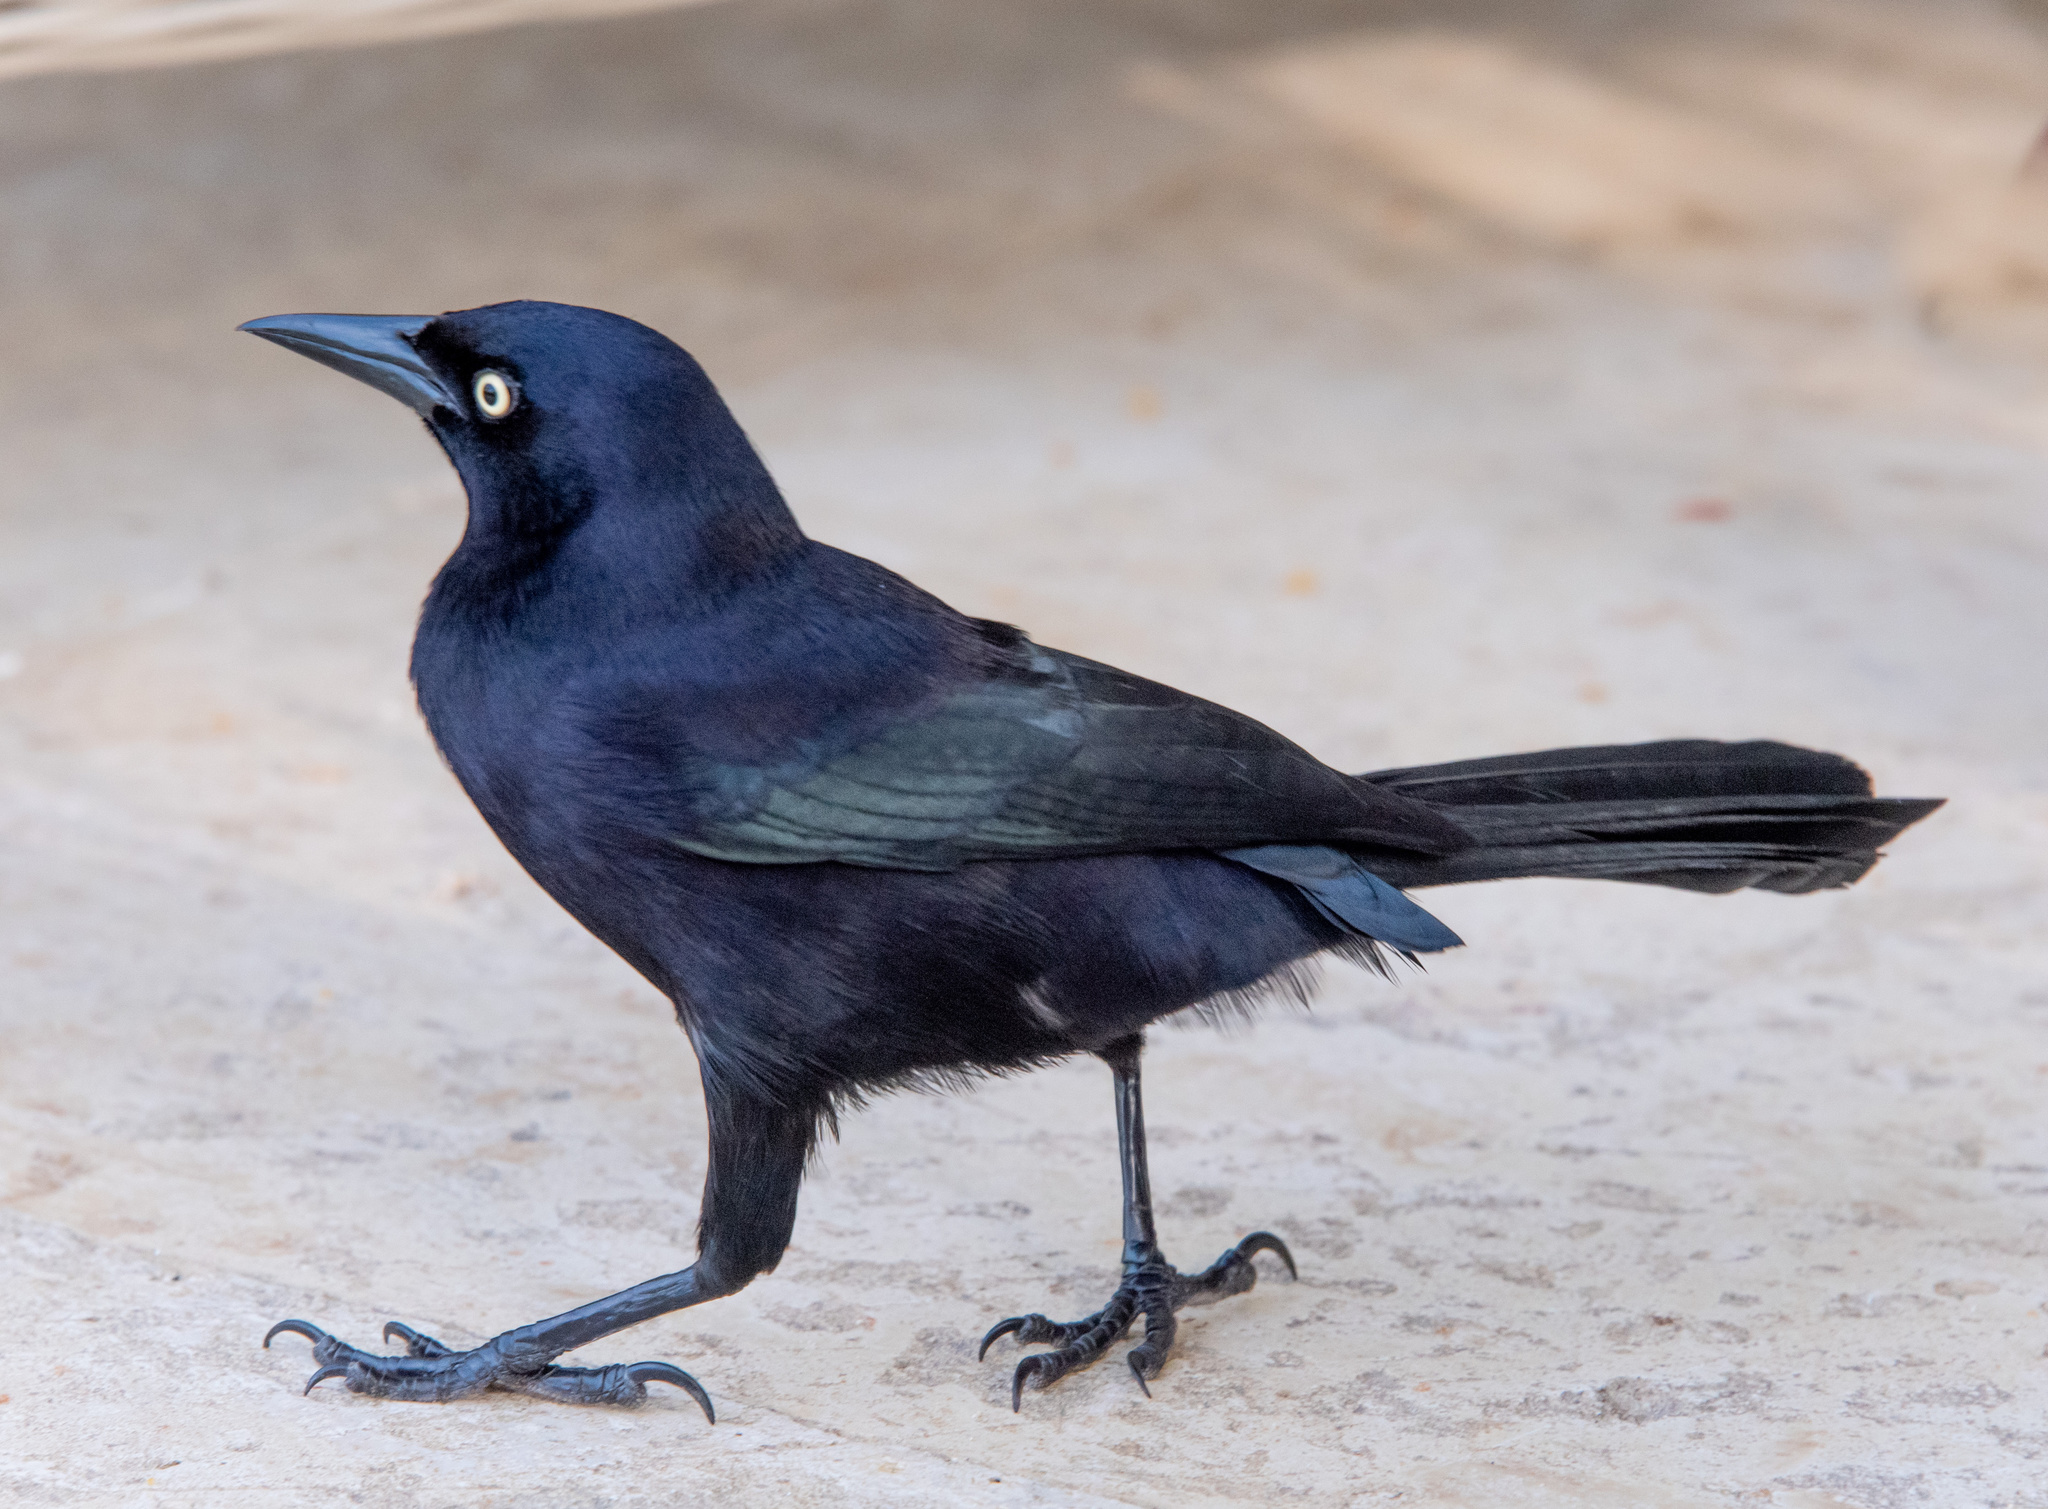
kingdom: Animalia
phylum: Chordata
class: Aves
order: Passeriformes
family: Icteridae
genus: Quiscalus
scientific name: Quiscalus lugubris
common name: Carib grackle
